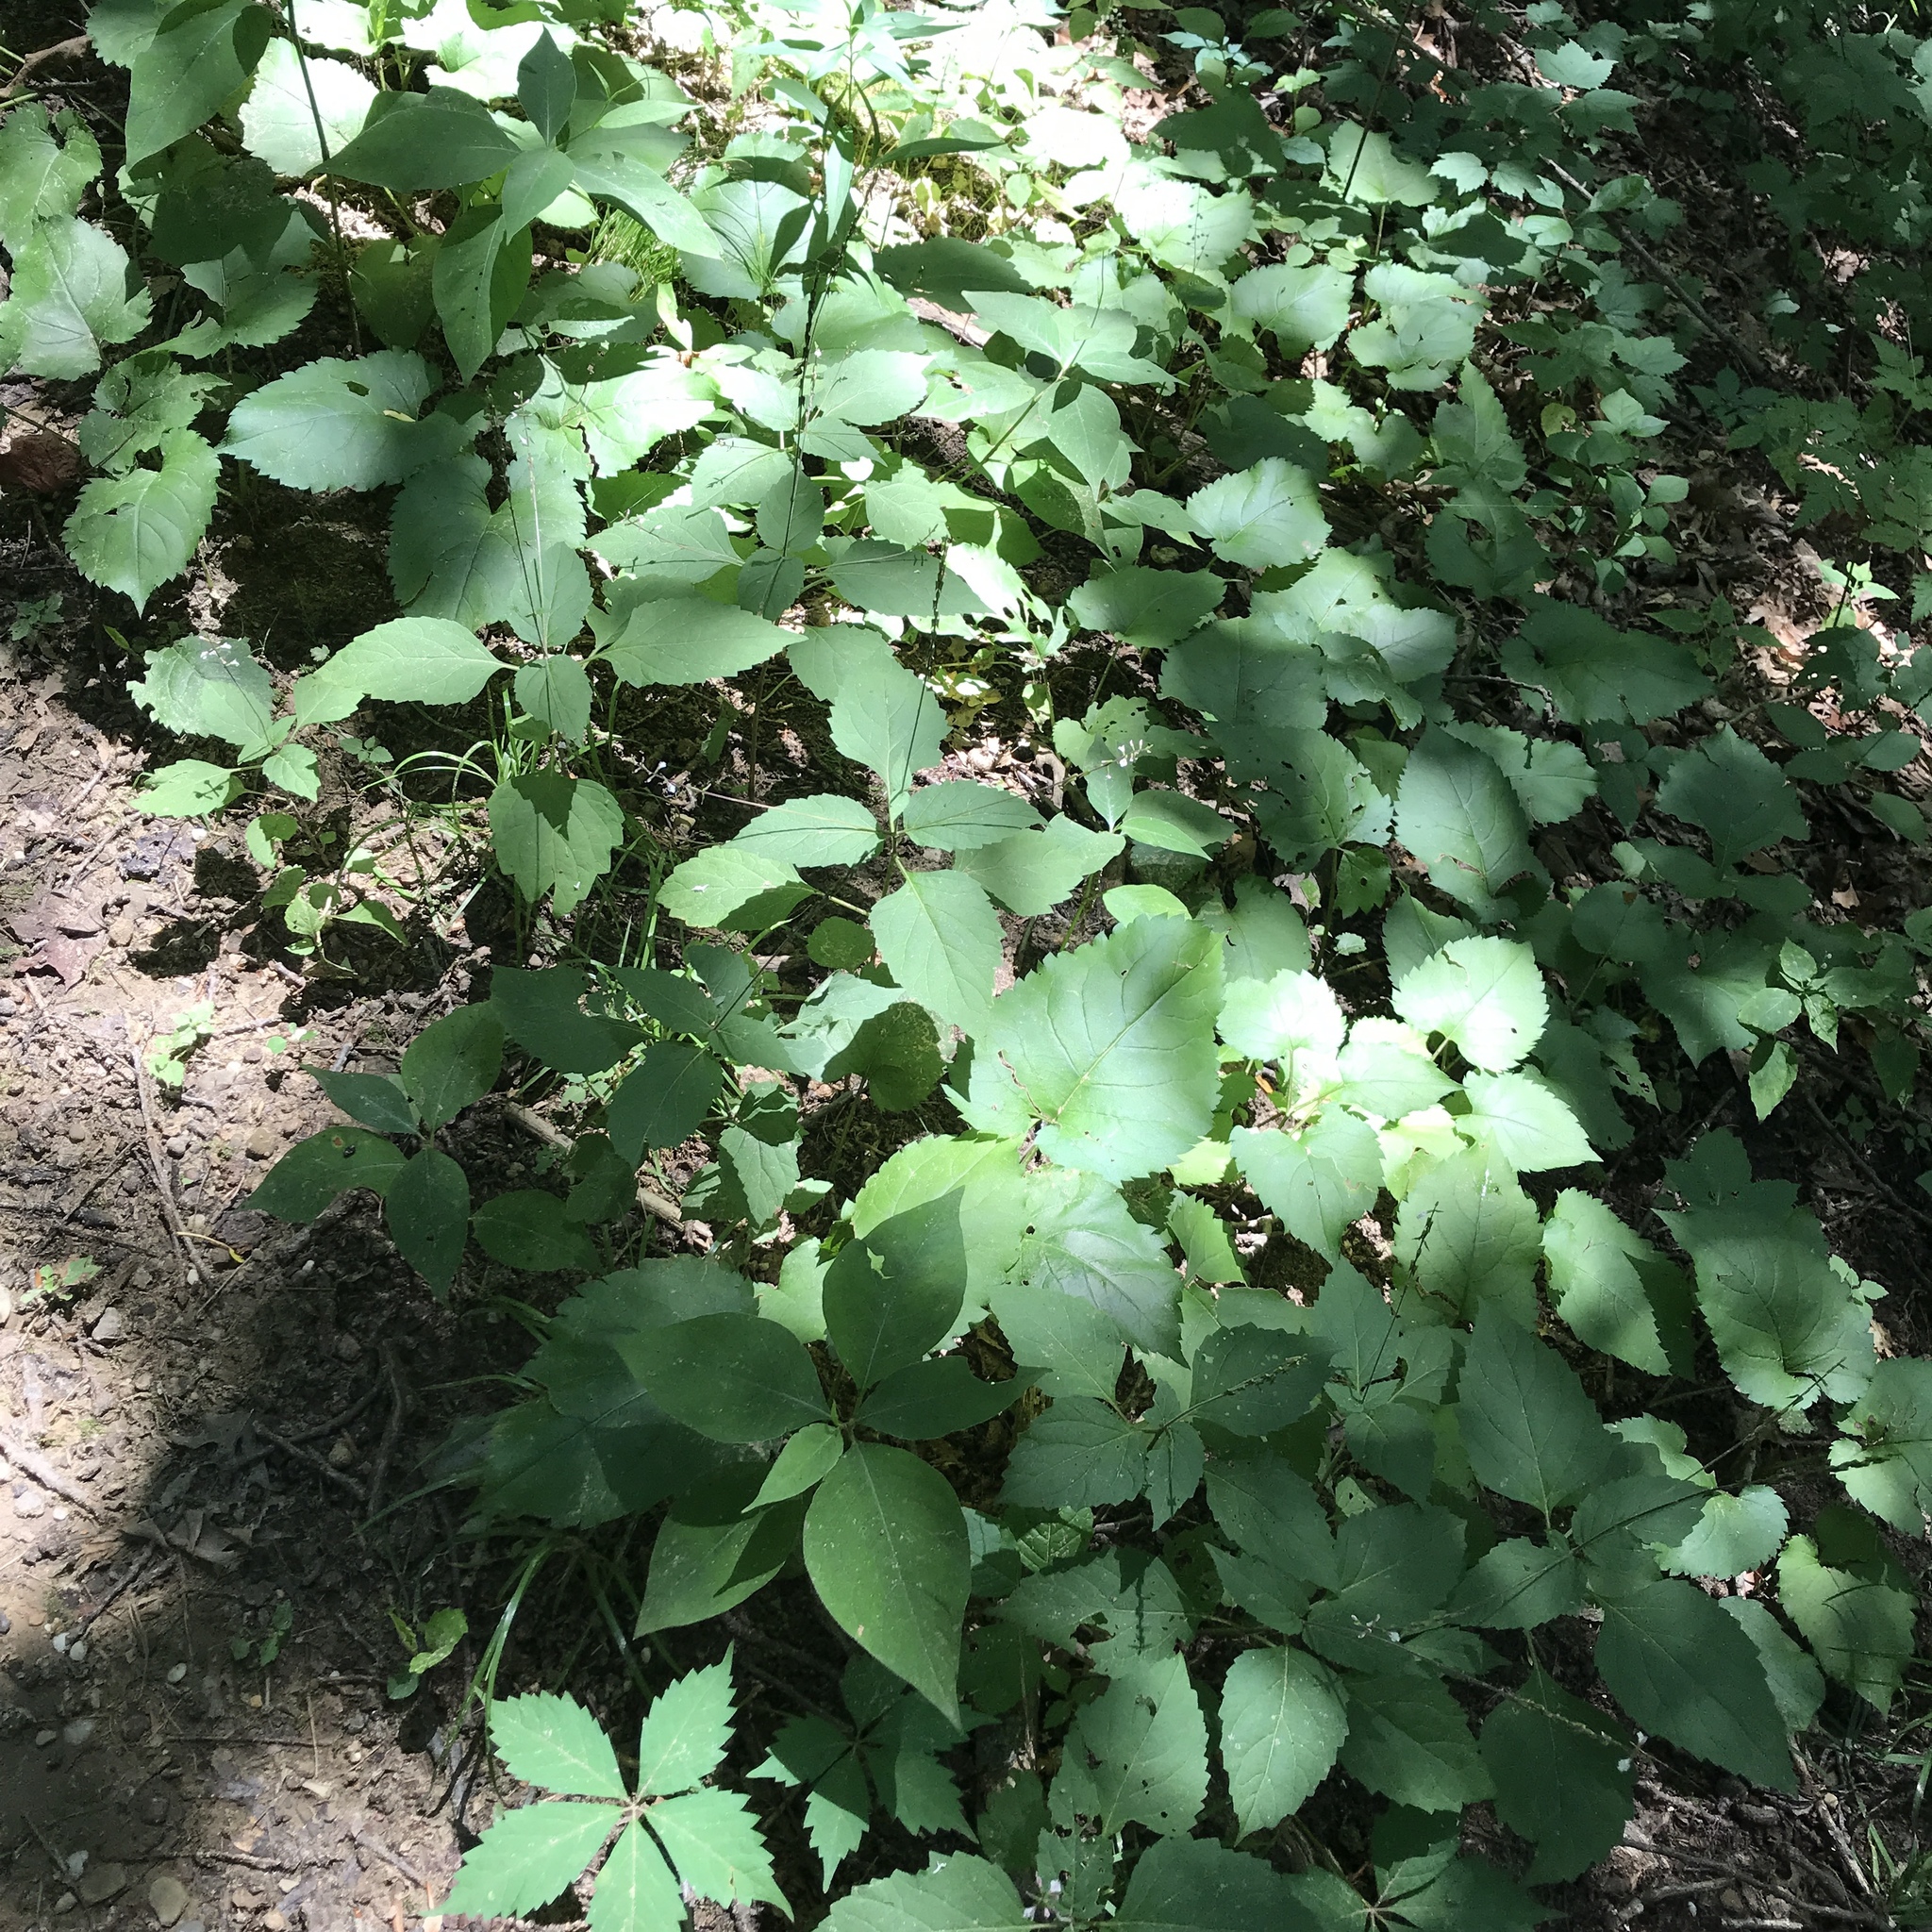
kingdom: Plantae
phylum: Tracheophyta
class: Magnoliopsida
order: Lamiales
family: Phrymaceae
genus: Phryma
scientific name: Phryma leptostachya
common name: American lopseed
